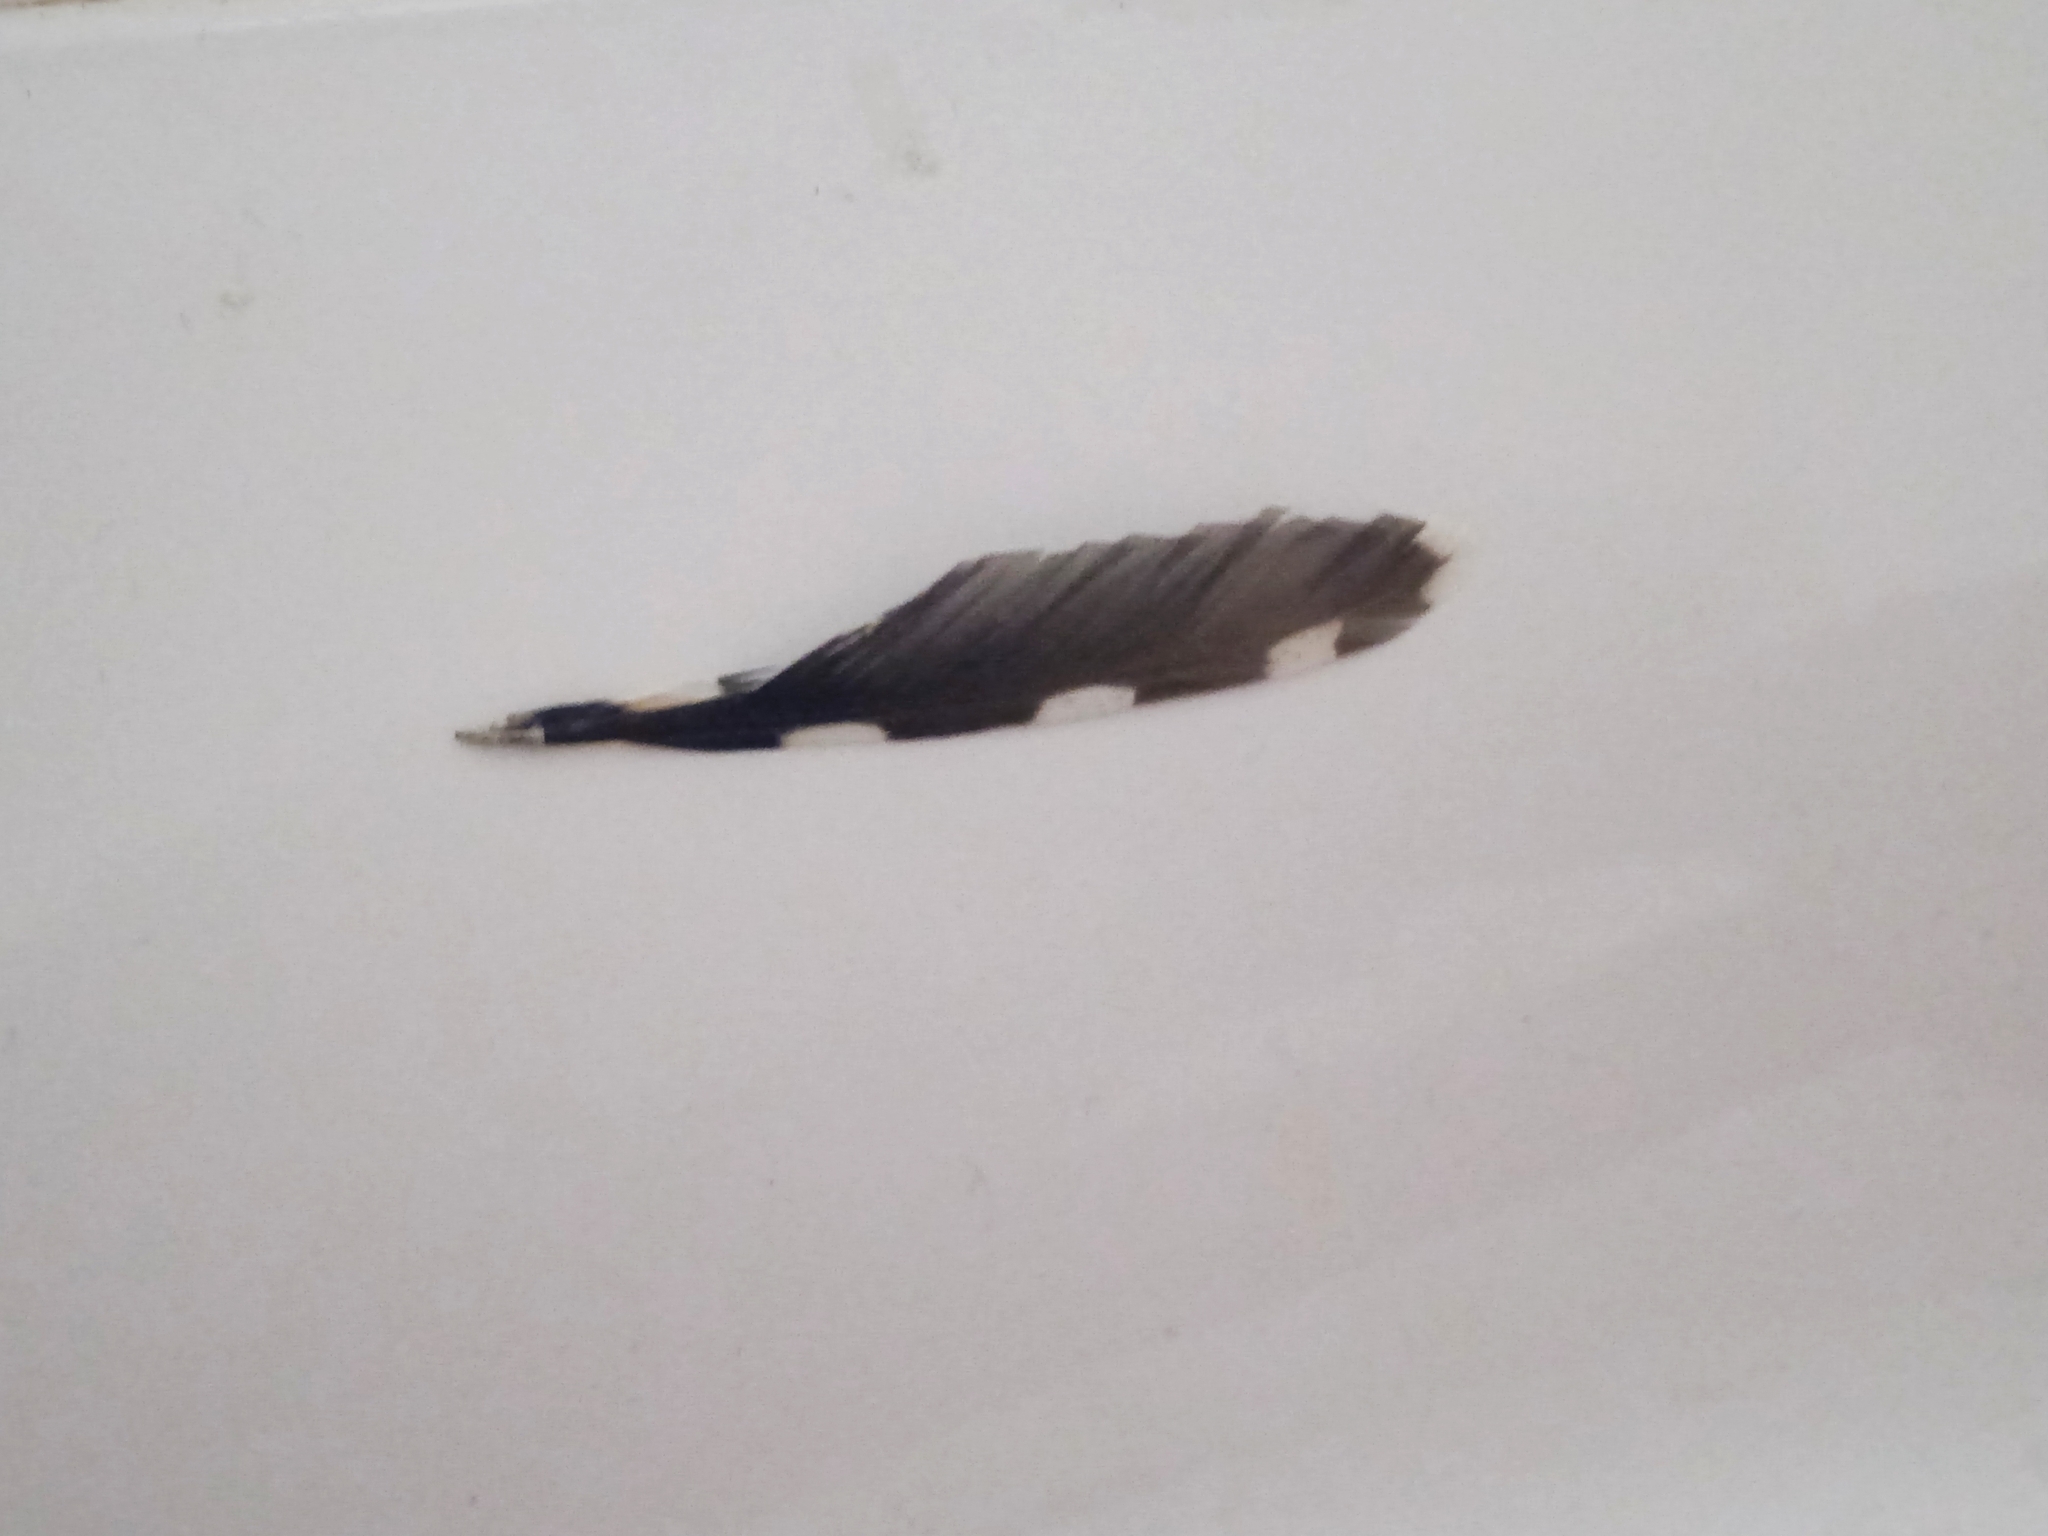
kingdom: Animalia
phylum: Chordata
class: Aves
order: Piciformes
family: Picidae
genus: Dendrocopos
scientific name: Dendrocopos major
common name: Great spotted woodpecker
